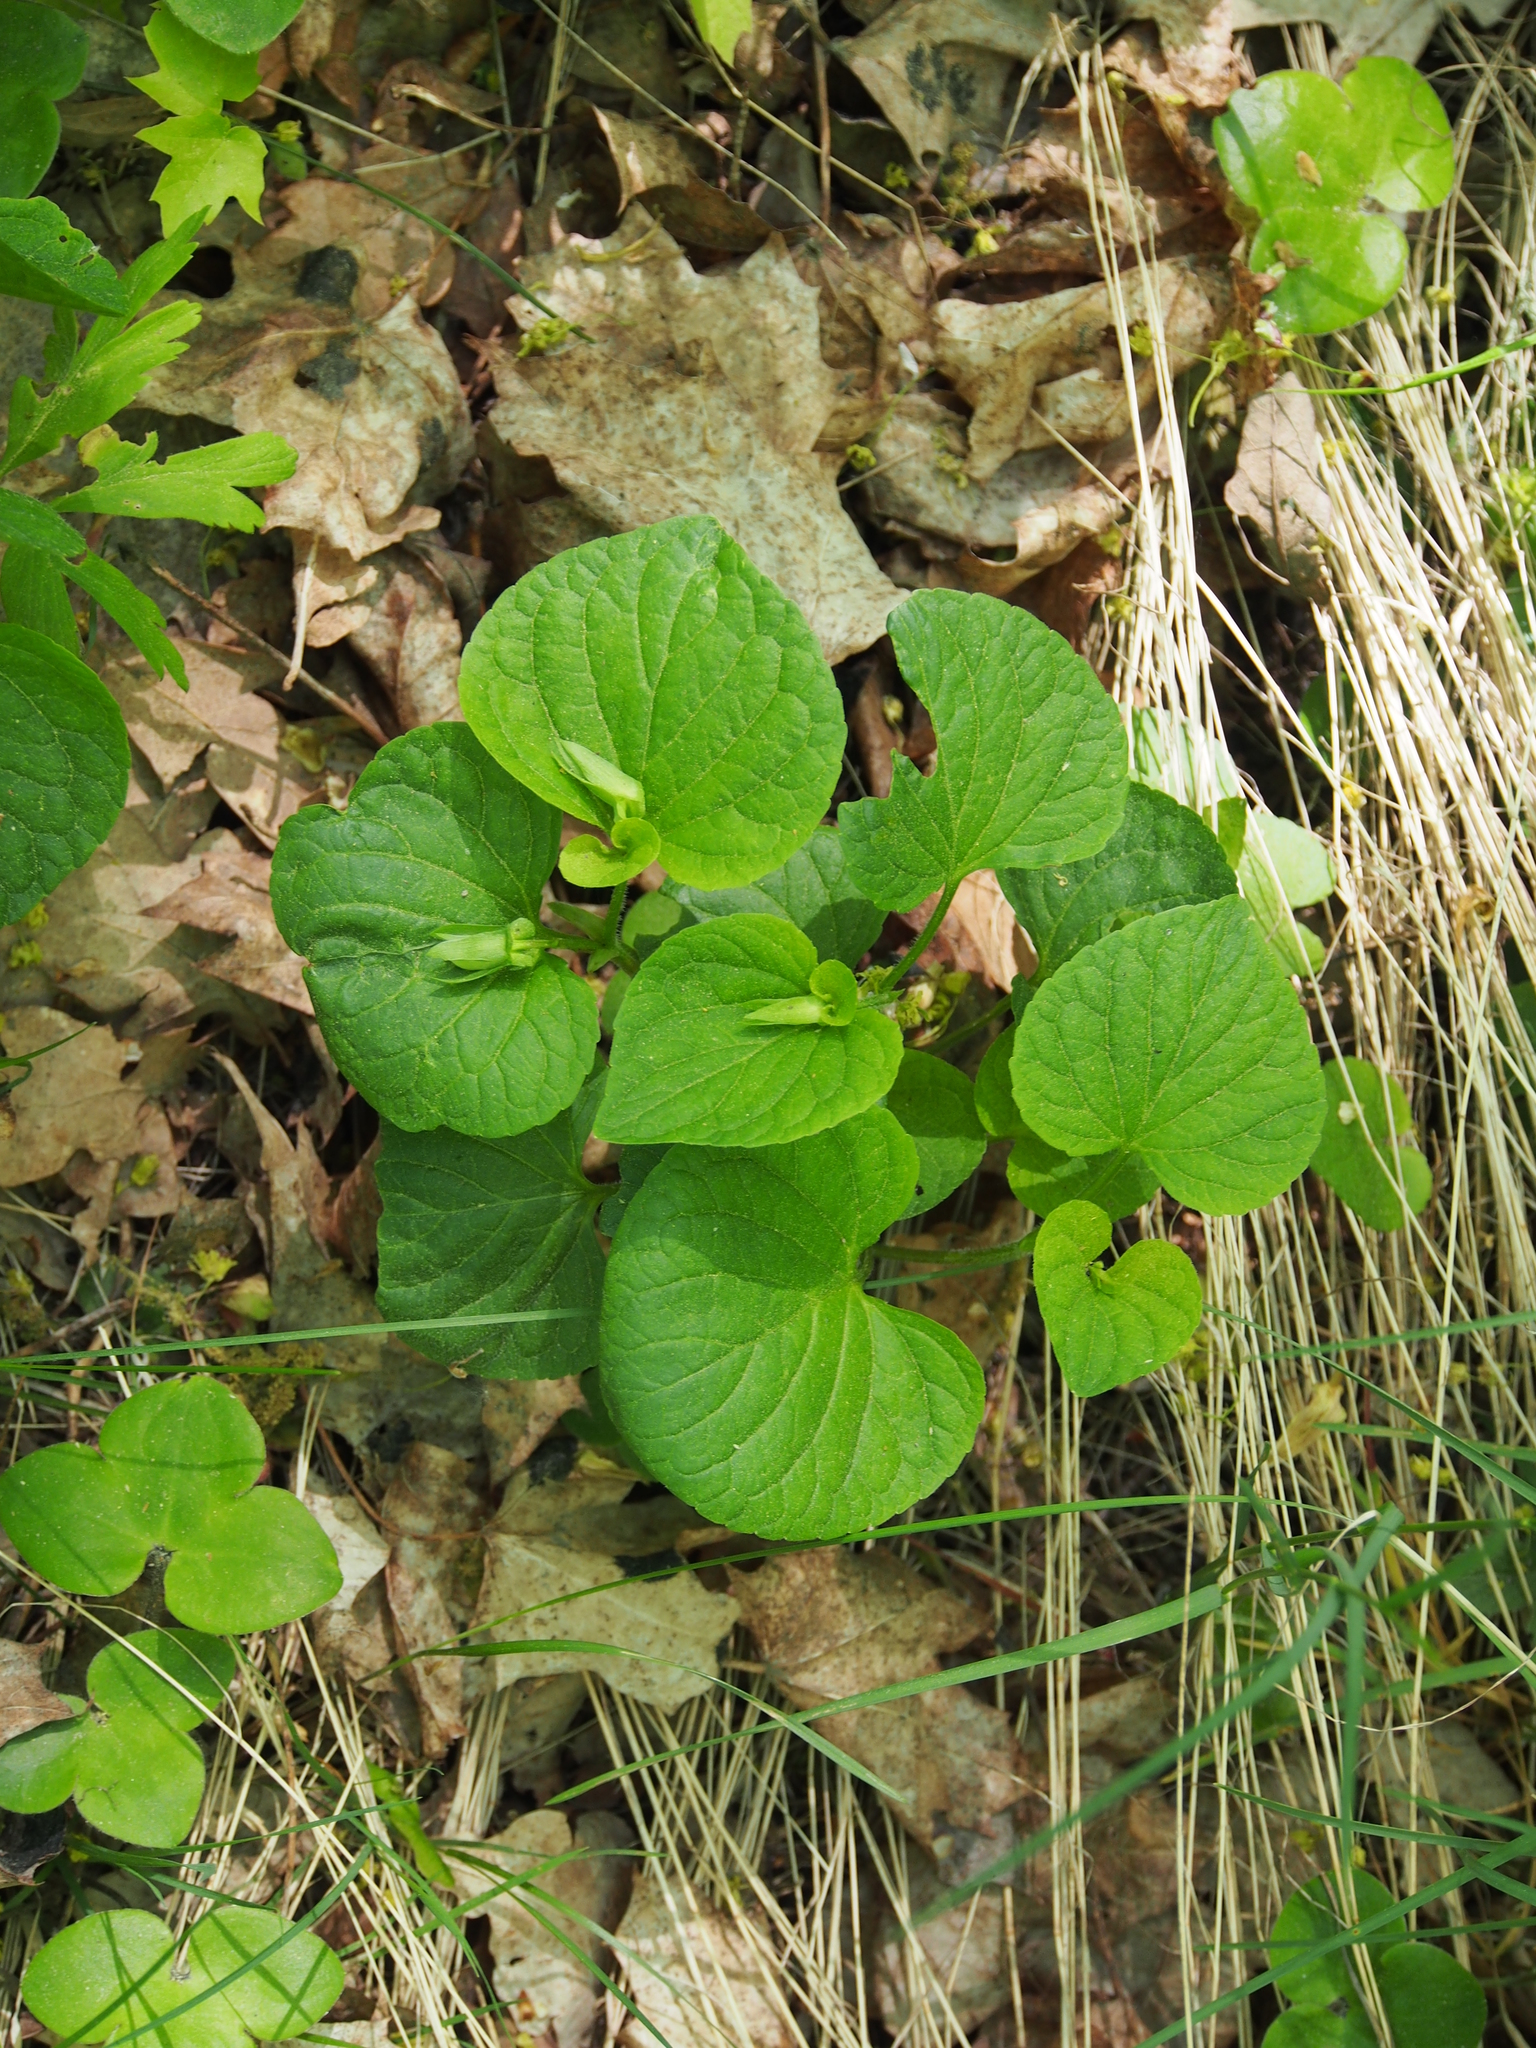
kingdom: Plantae
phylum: Tracheophyta
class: Magnoliopsida
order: Malpighiales
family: Violaceae
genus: Viola
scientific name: Viola mirabilis
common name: Wonder violet
